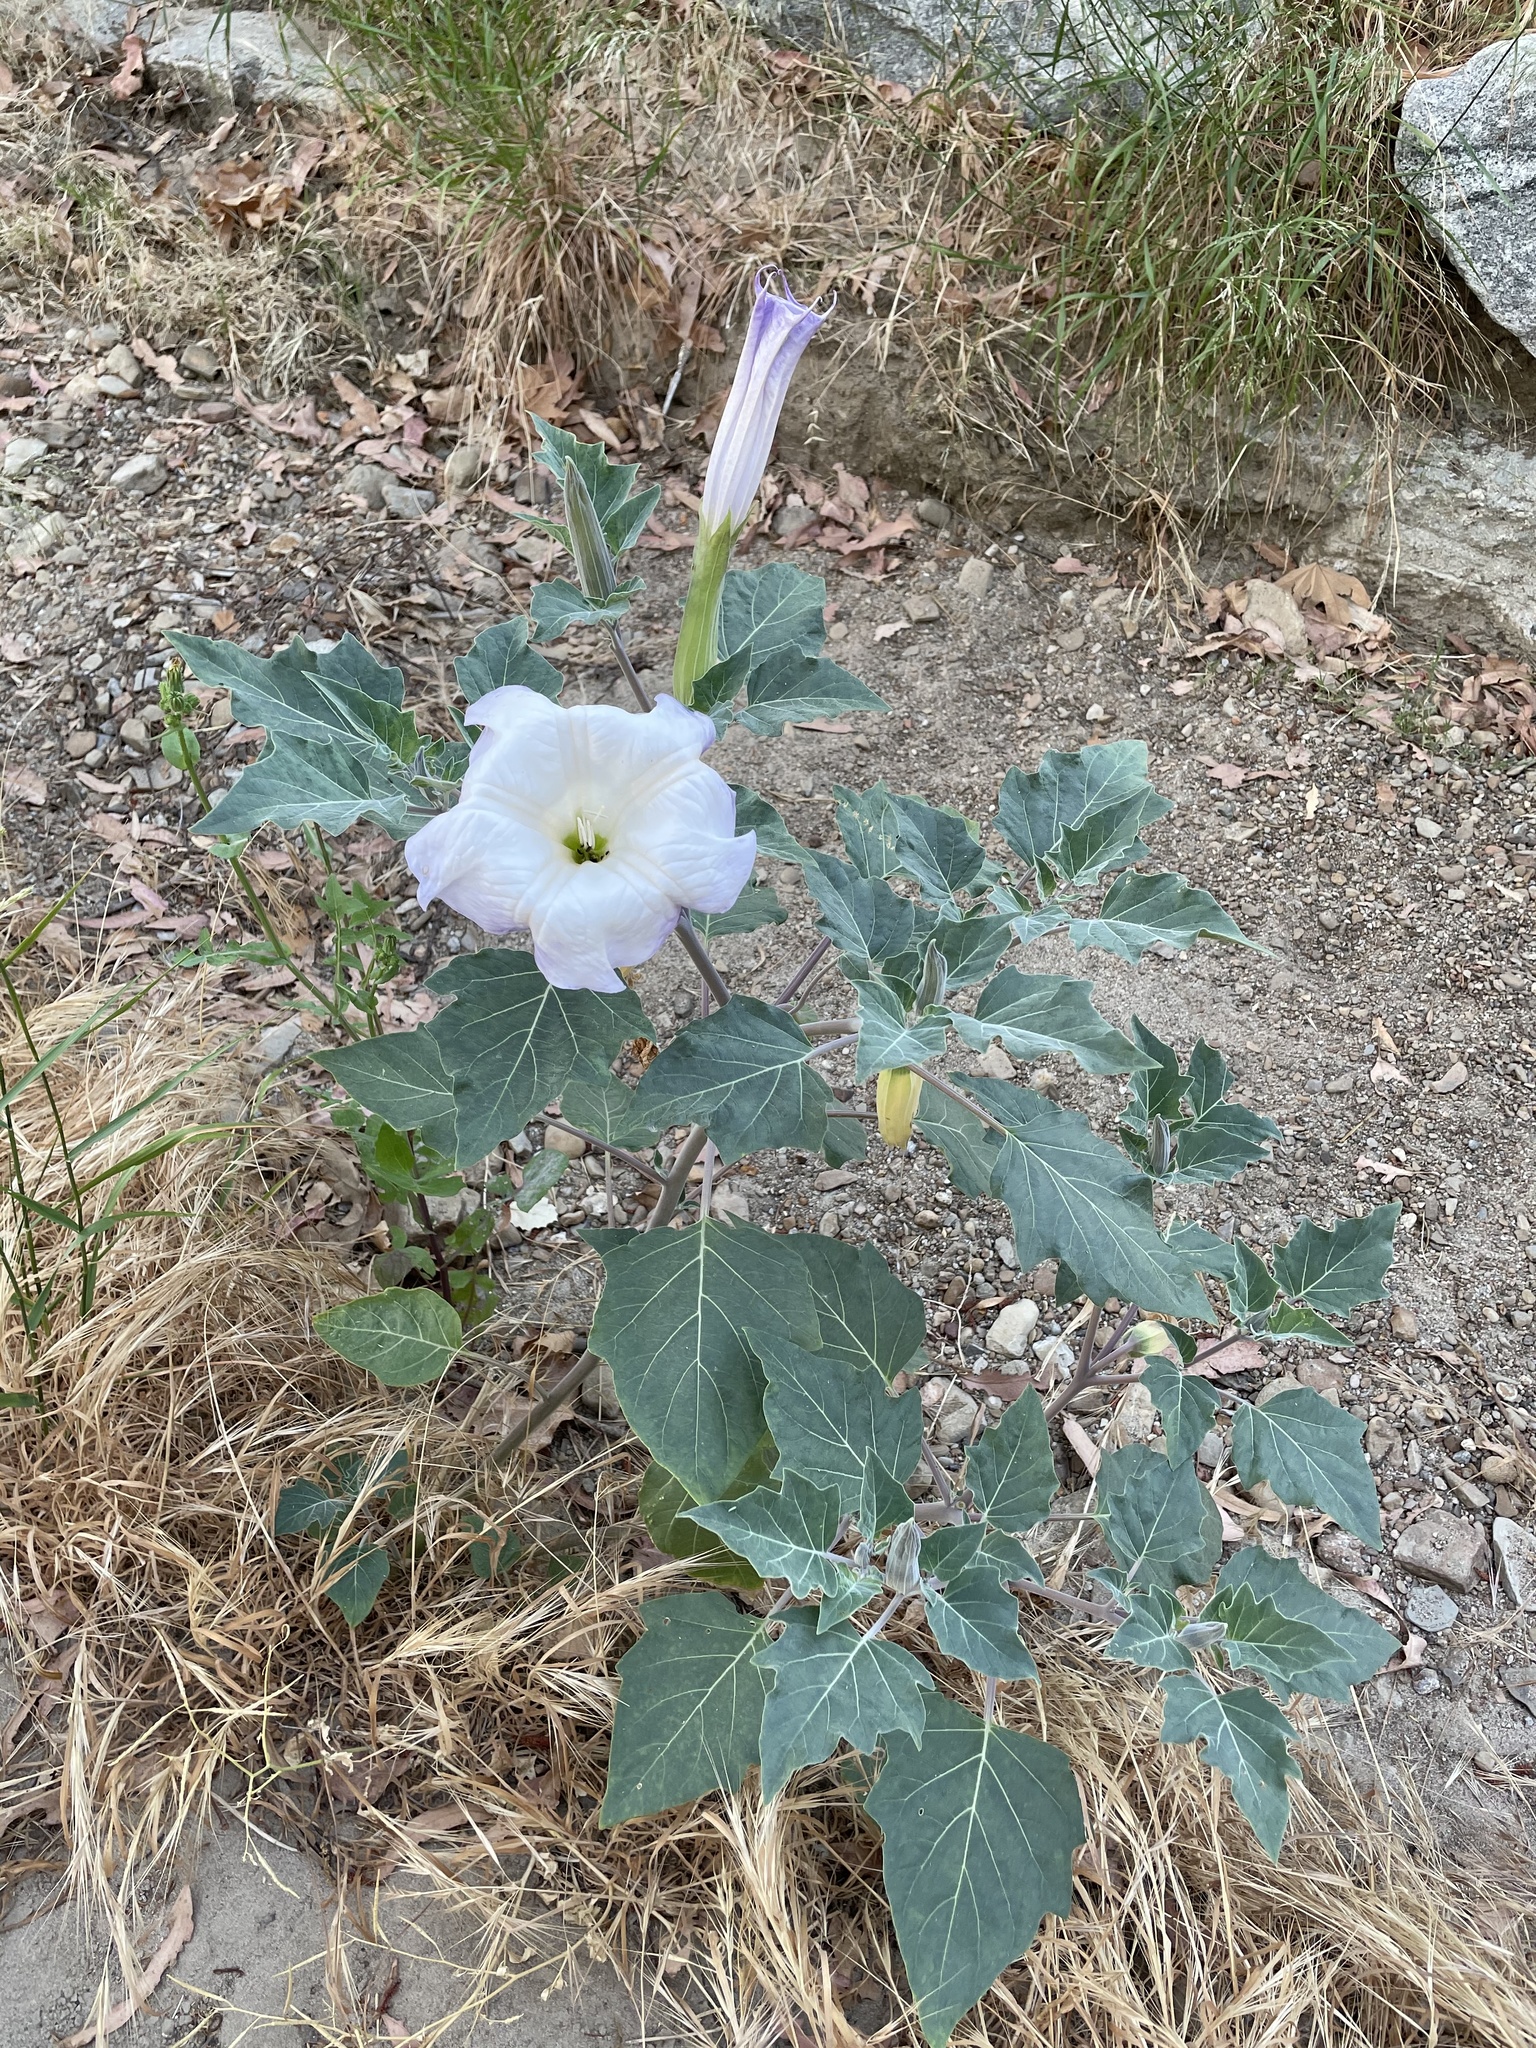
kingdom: Plantae
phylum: Tracheophyta
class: Magnoliopsida
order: Solanales
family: Solanaceae
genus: Datura
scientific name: Datura wrightii
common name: Sacred thorn-apple
